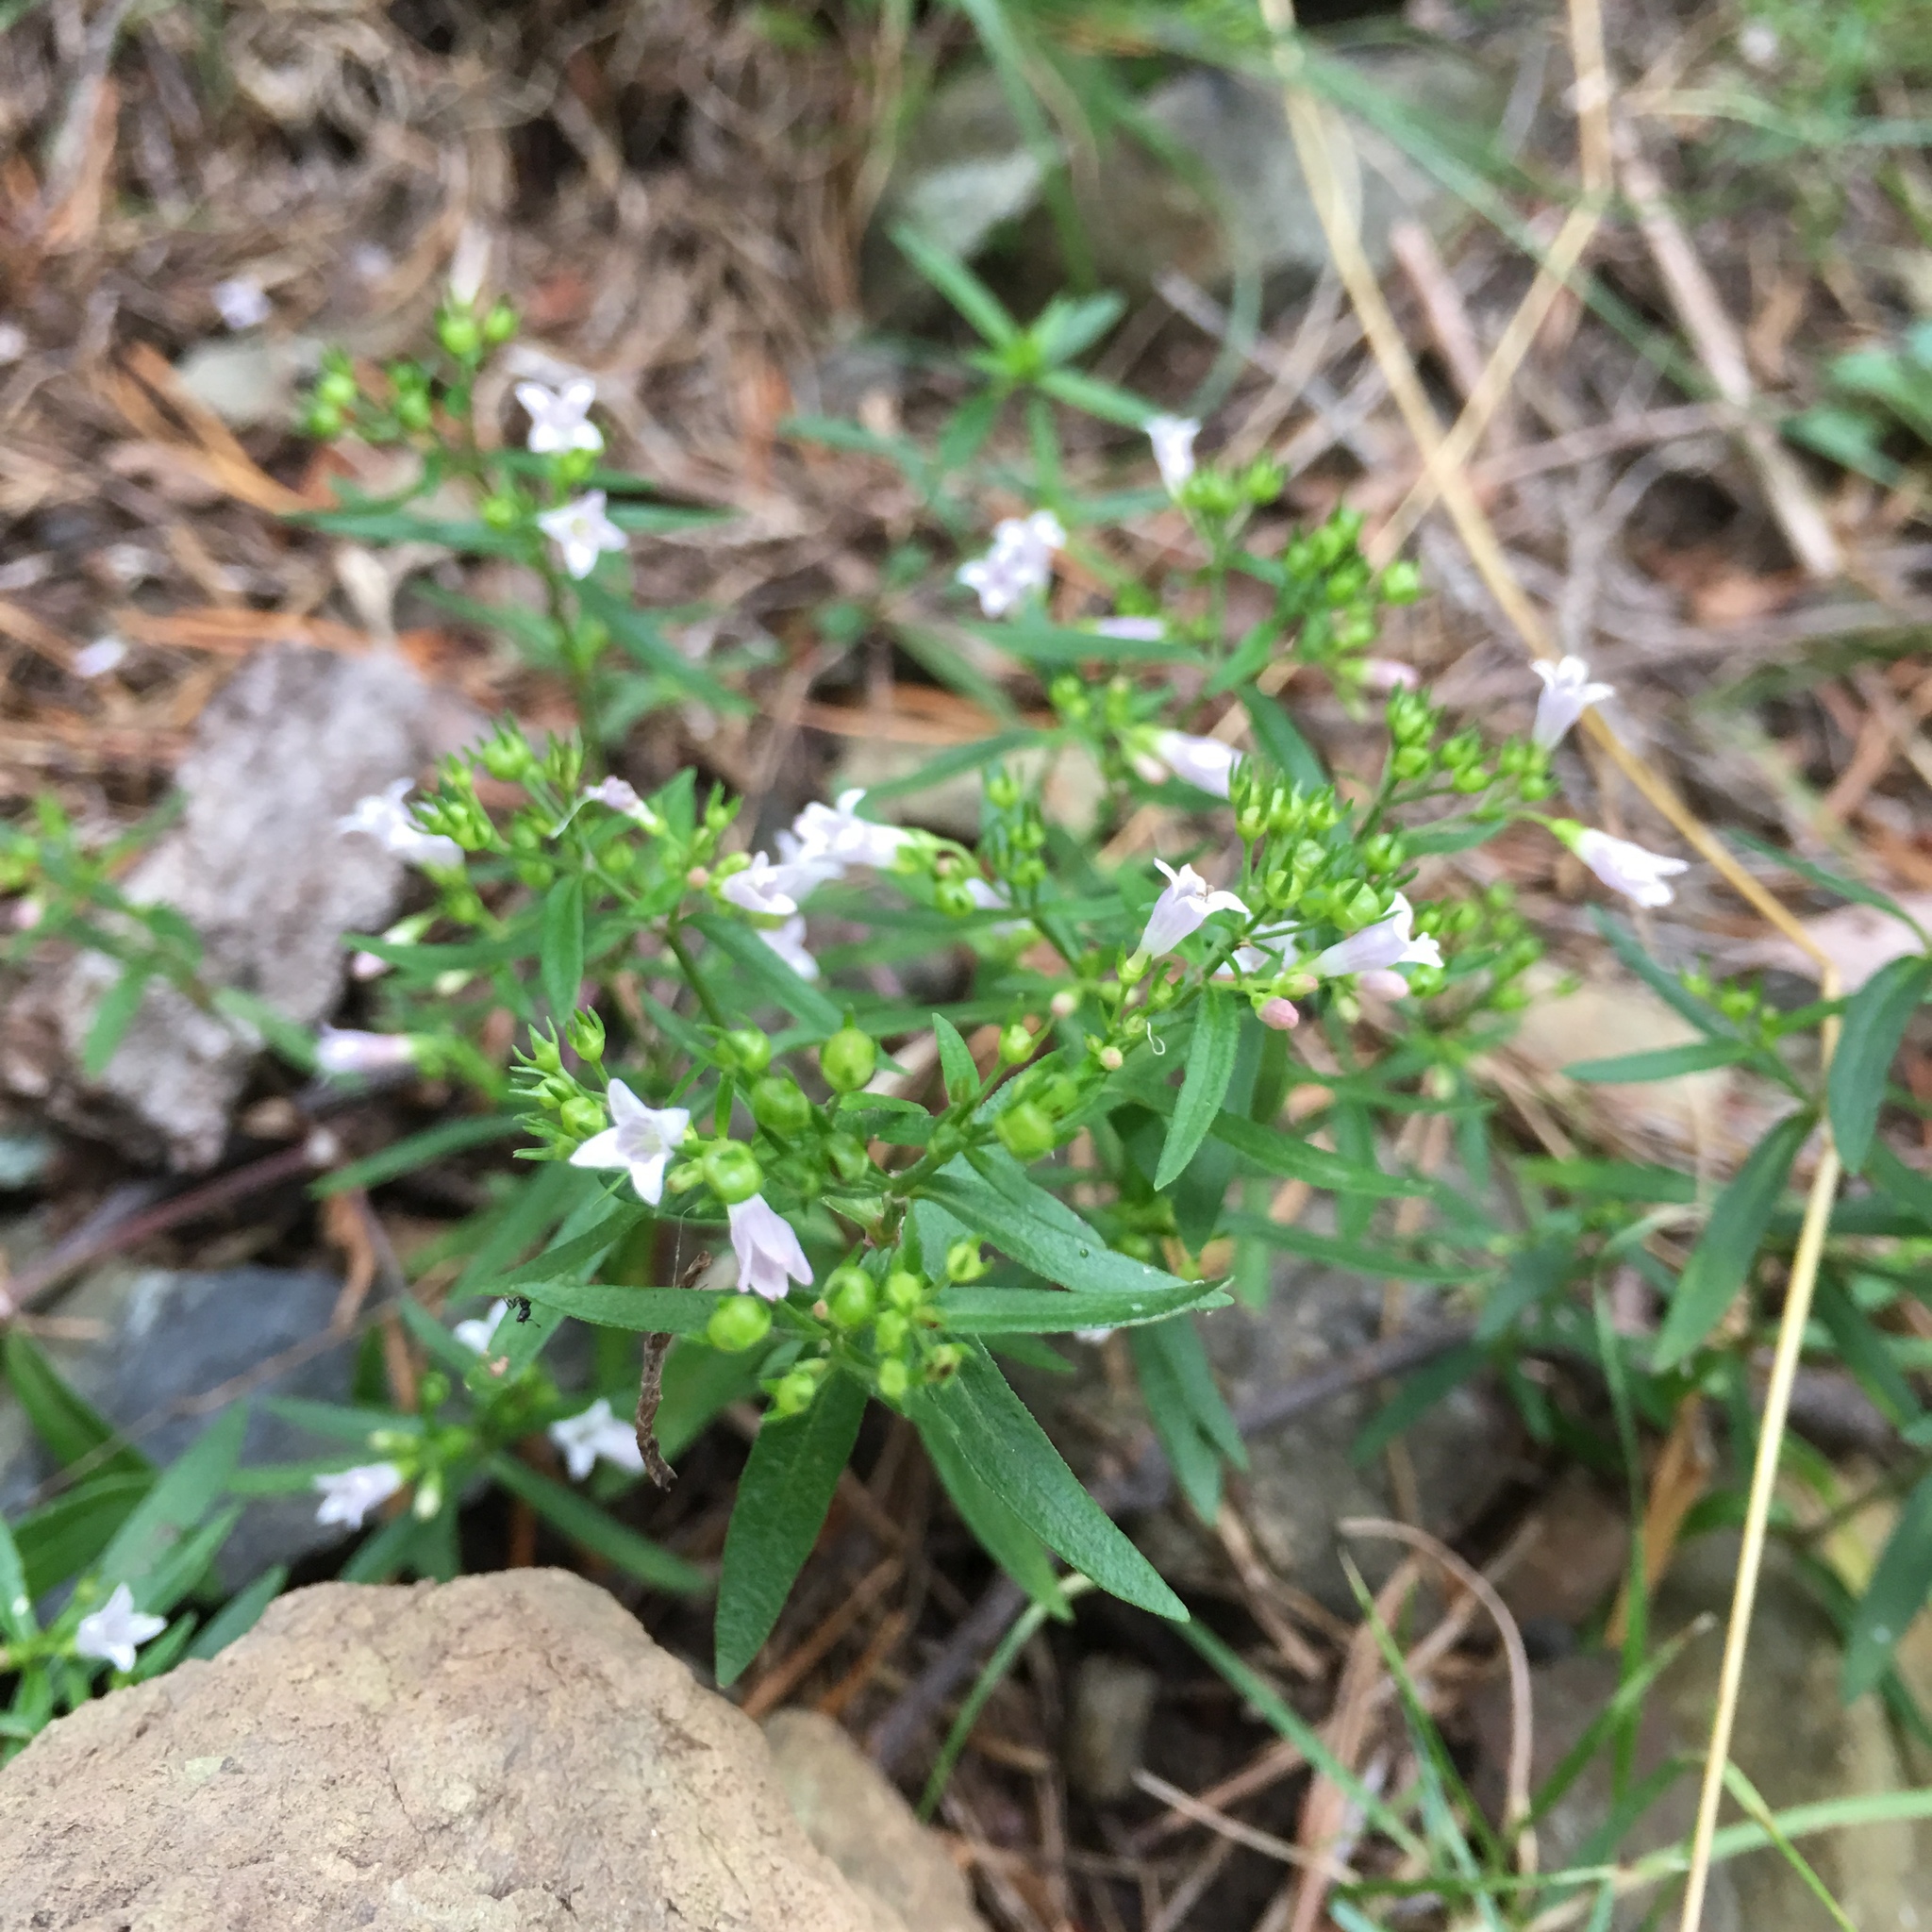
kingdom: Plantae
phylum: Tracheophyta
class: Magnoliopsida
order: Gentianales
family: Rubiaceae
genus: Houstonia
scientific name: Houstonia longifolia
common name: Long-leaved bluets
